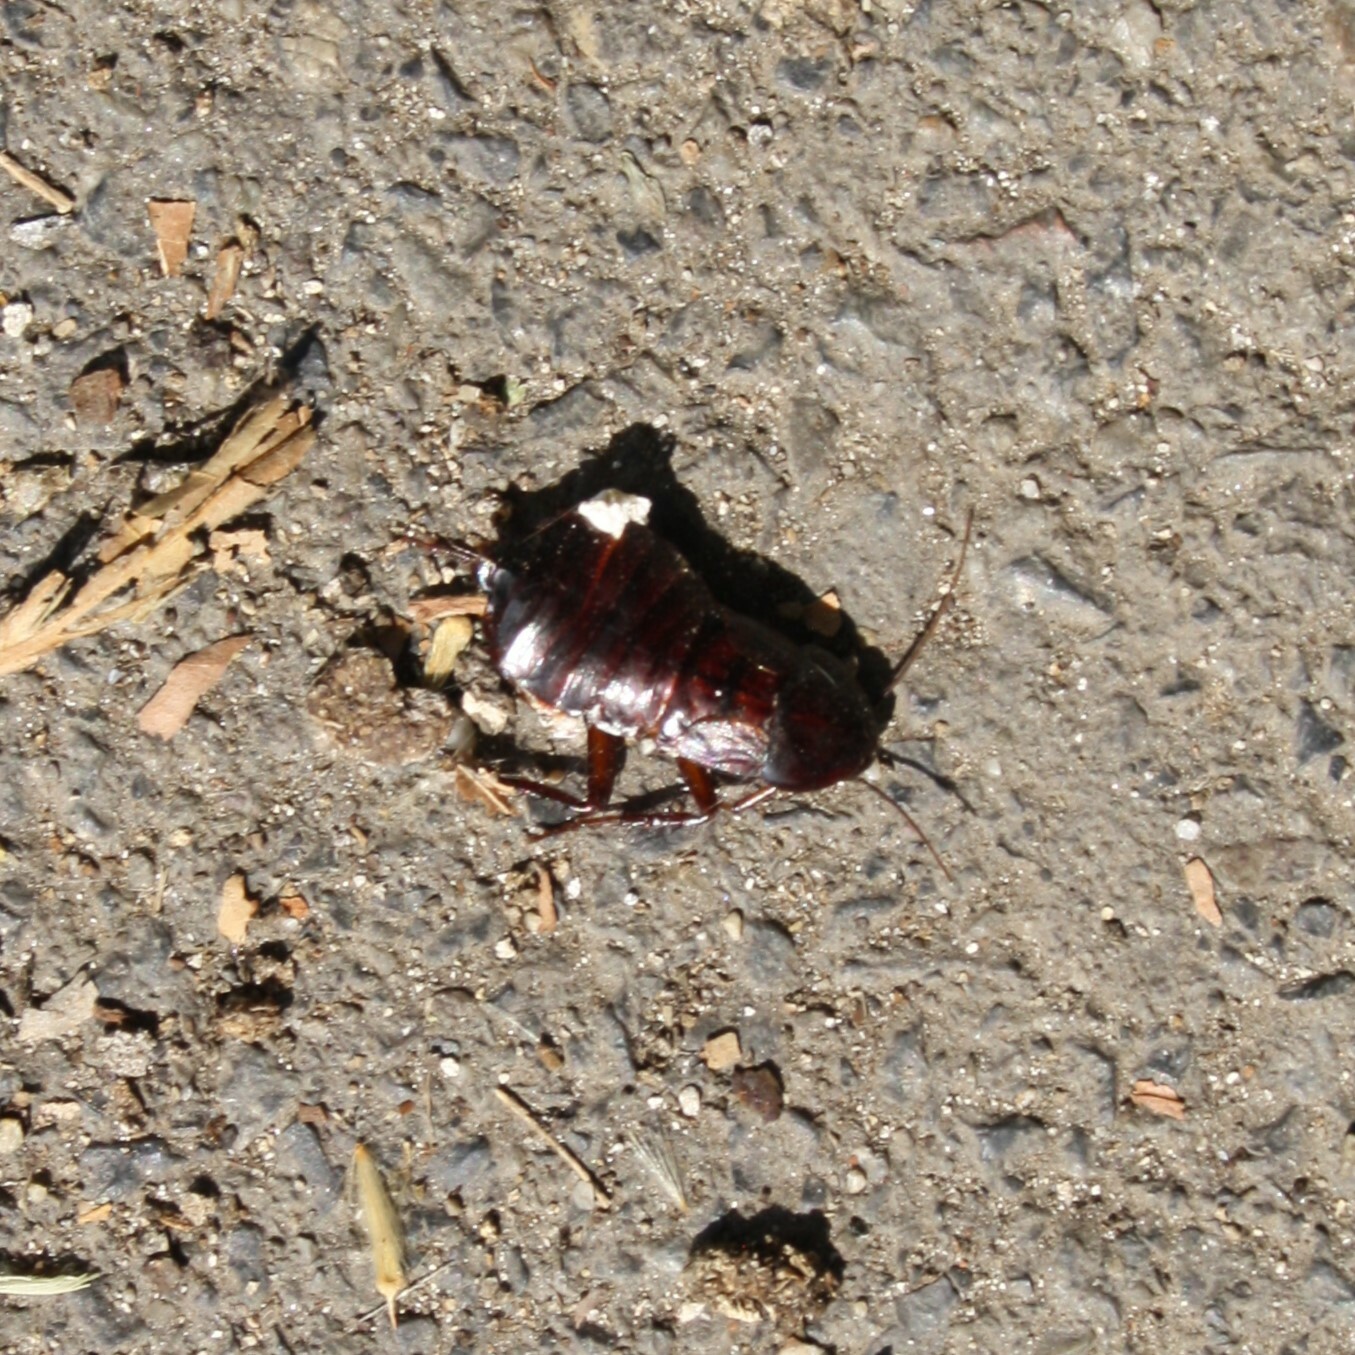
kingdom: Animalia
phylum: Arthropoda
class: Insecta
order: Blattodea
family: Blattidae
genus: Blatta
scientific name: Blatta orientalis
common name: Oriental cockroach
